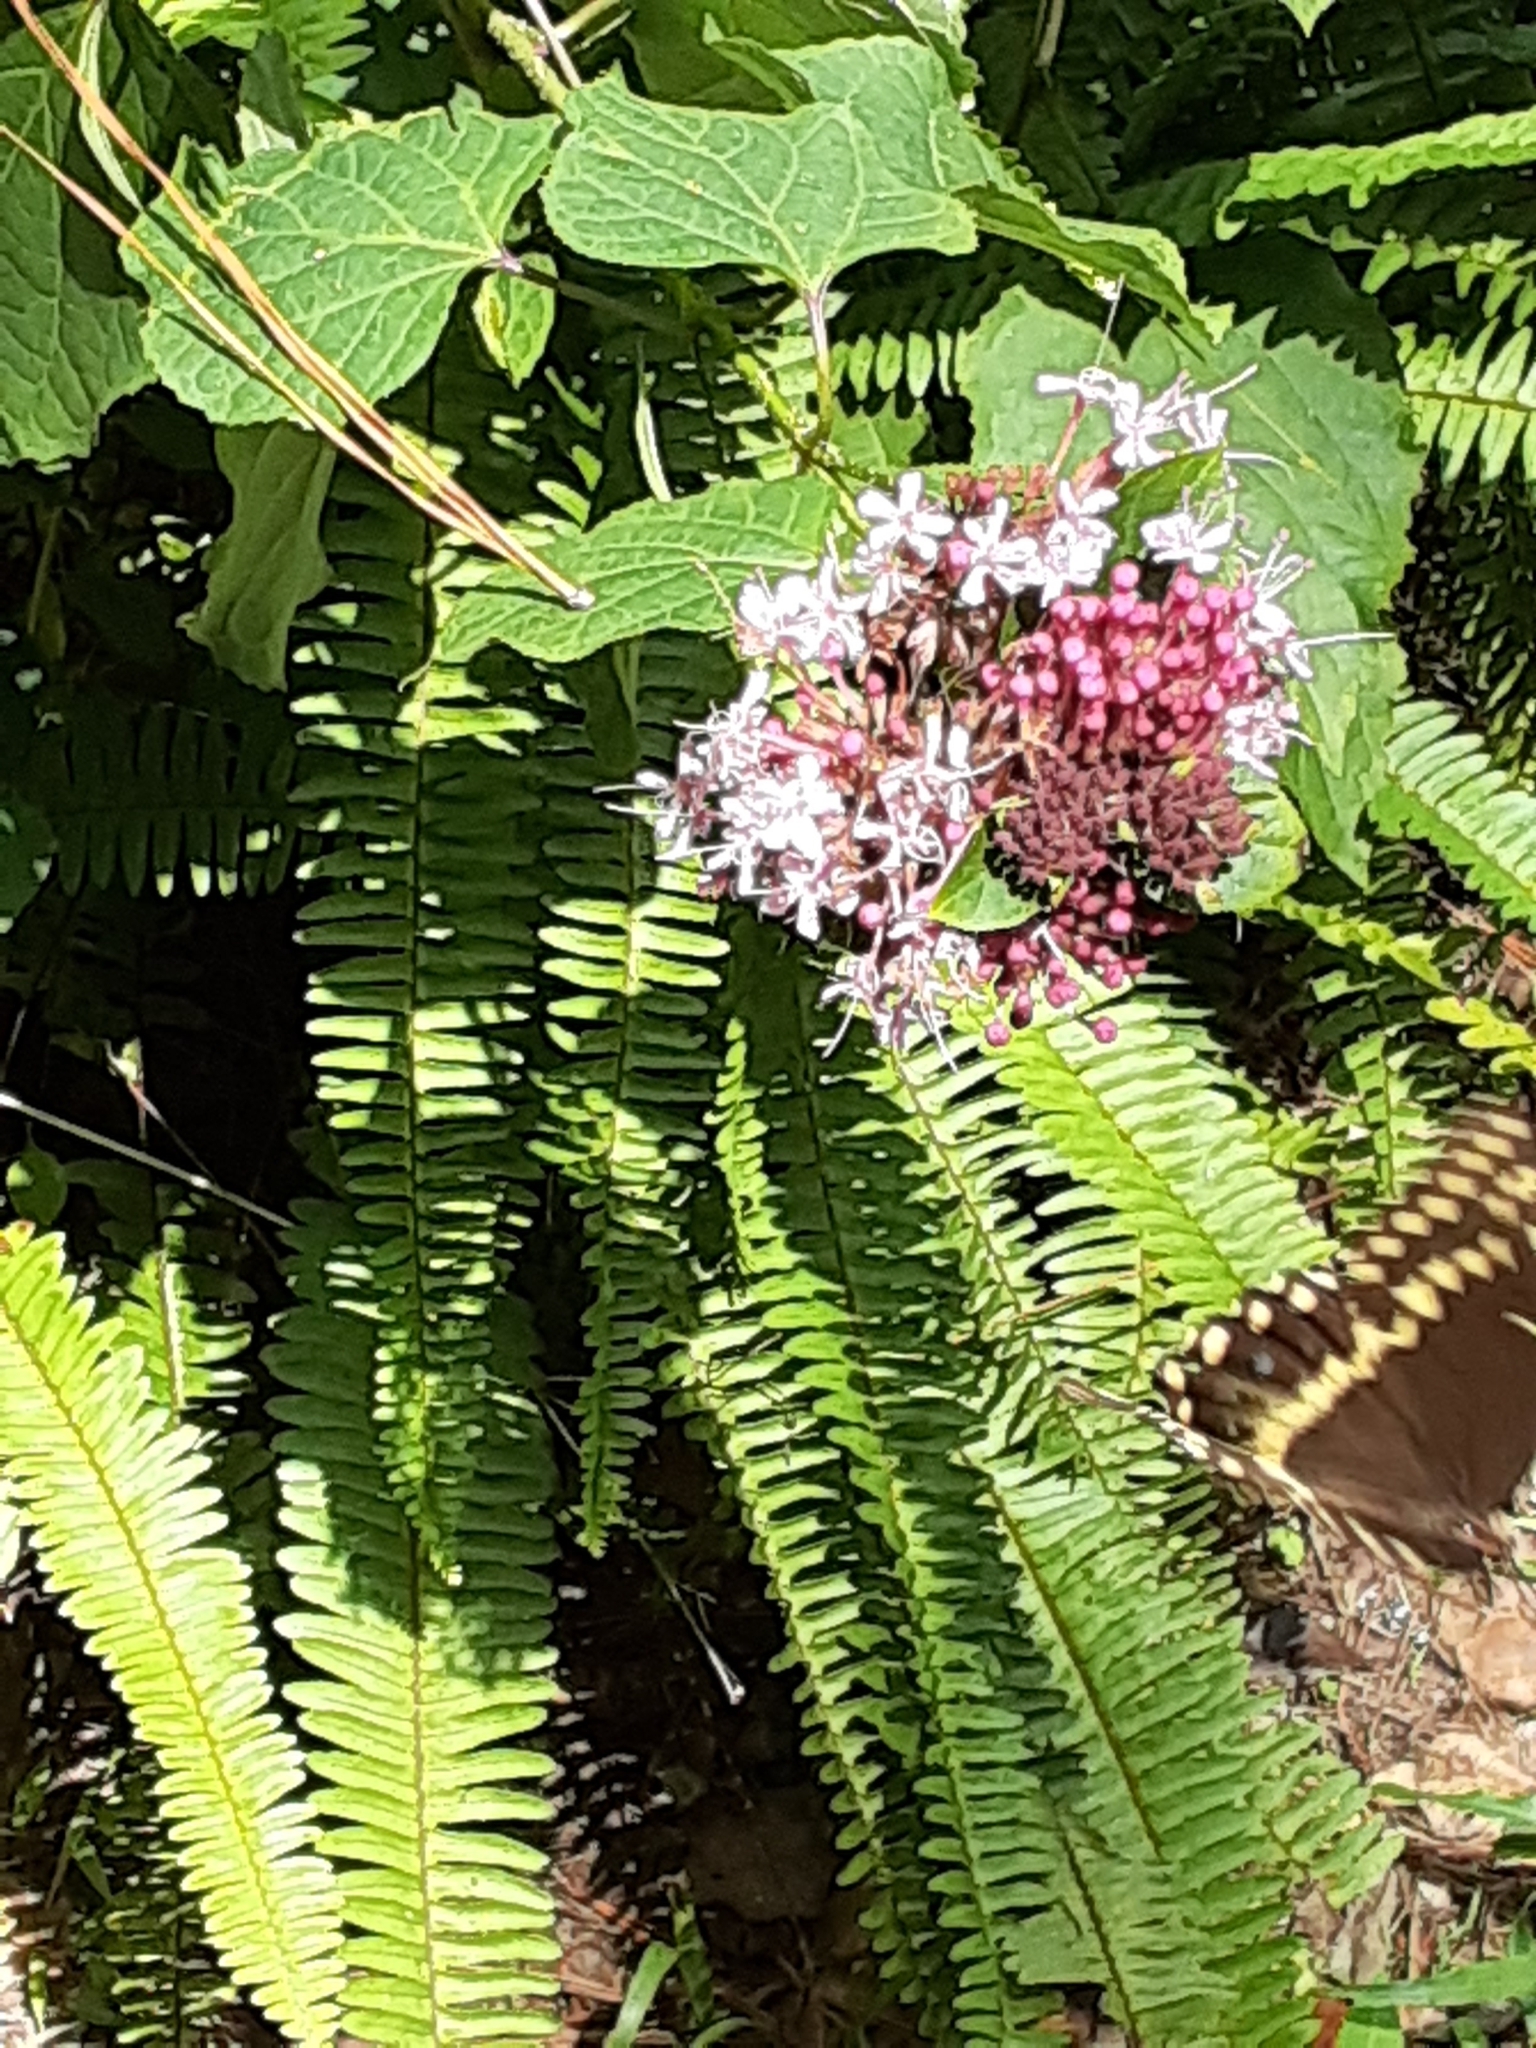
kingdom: Animalia
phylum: Arthropoda
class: Insecta
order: Lepidoptera
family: Papilionidae
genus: Papilio
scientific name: Papilio palamedes
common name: Palamedes swallowtail
